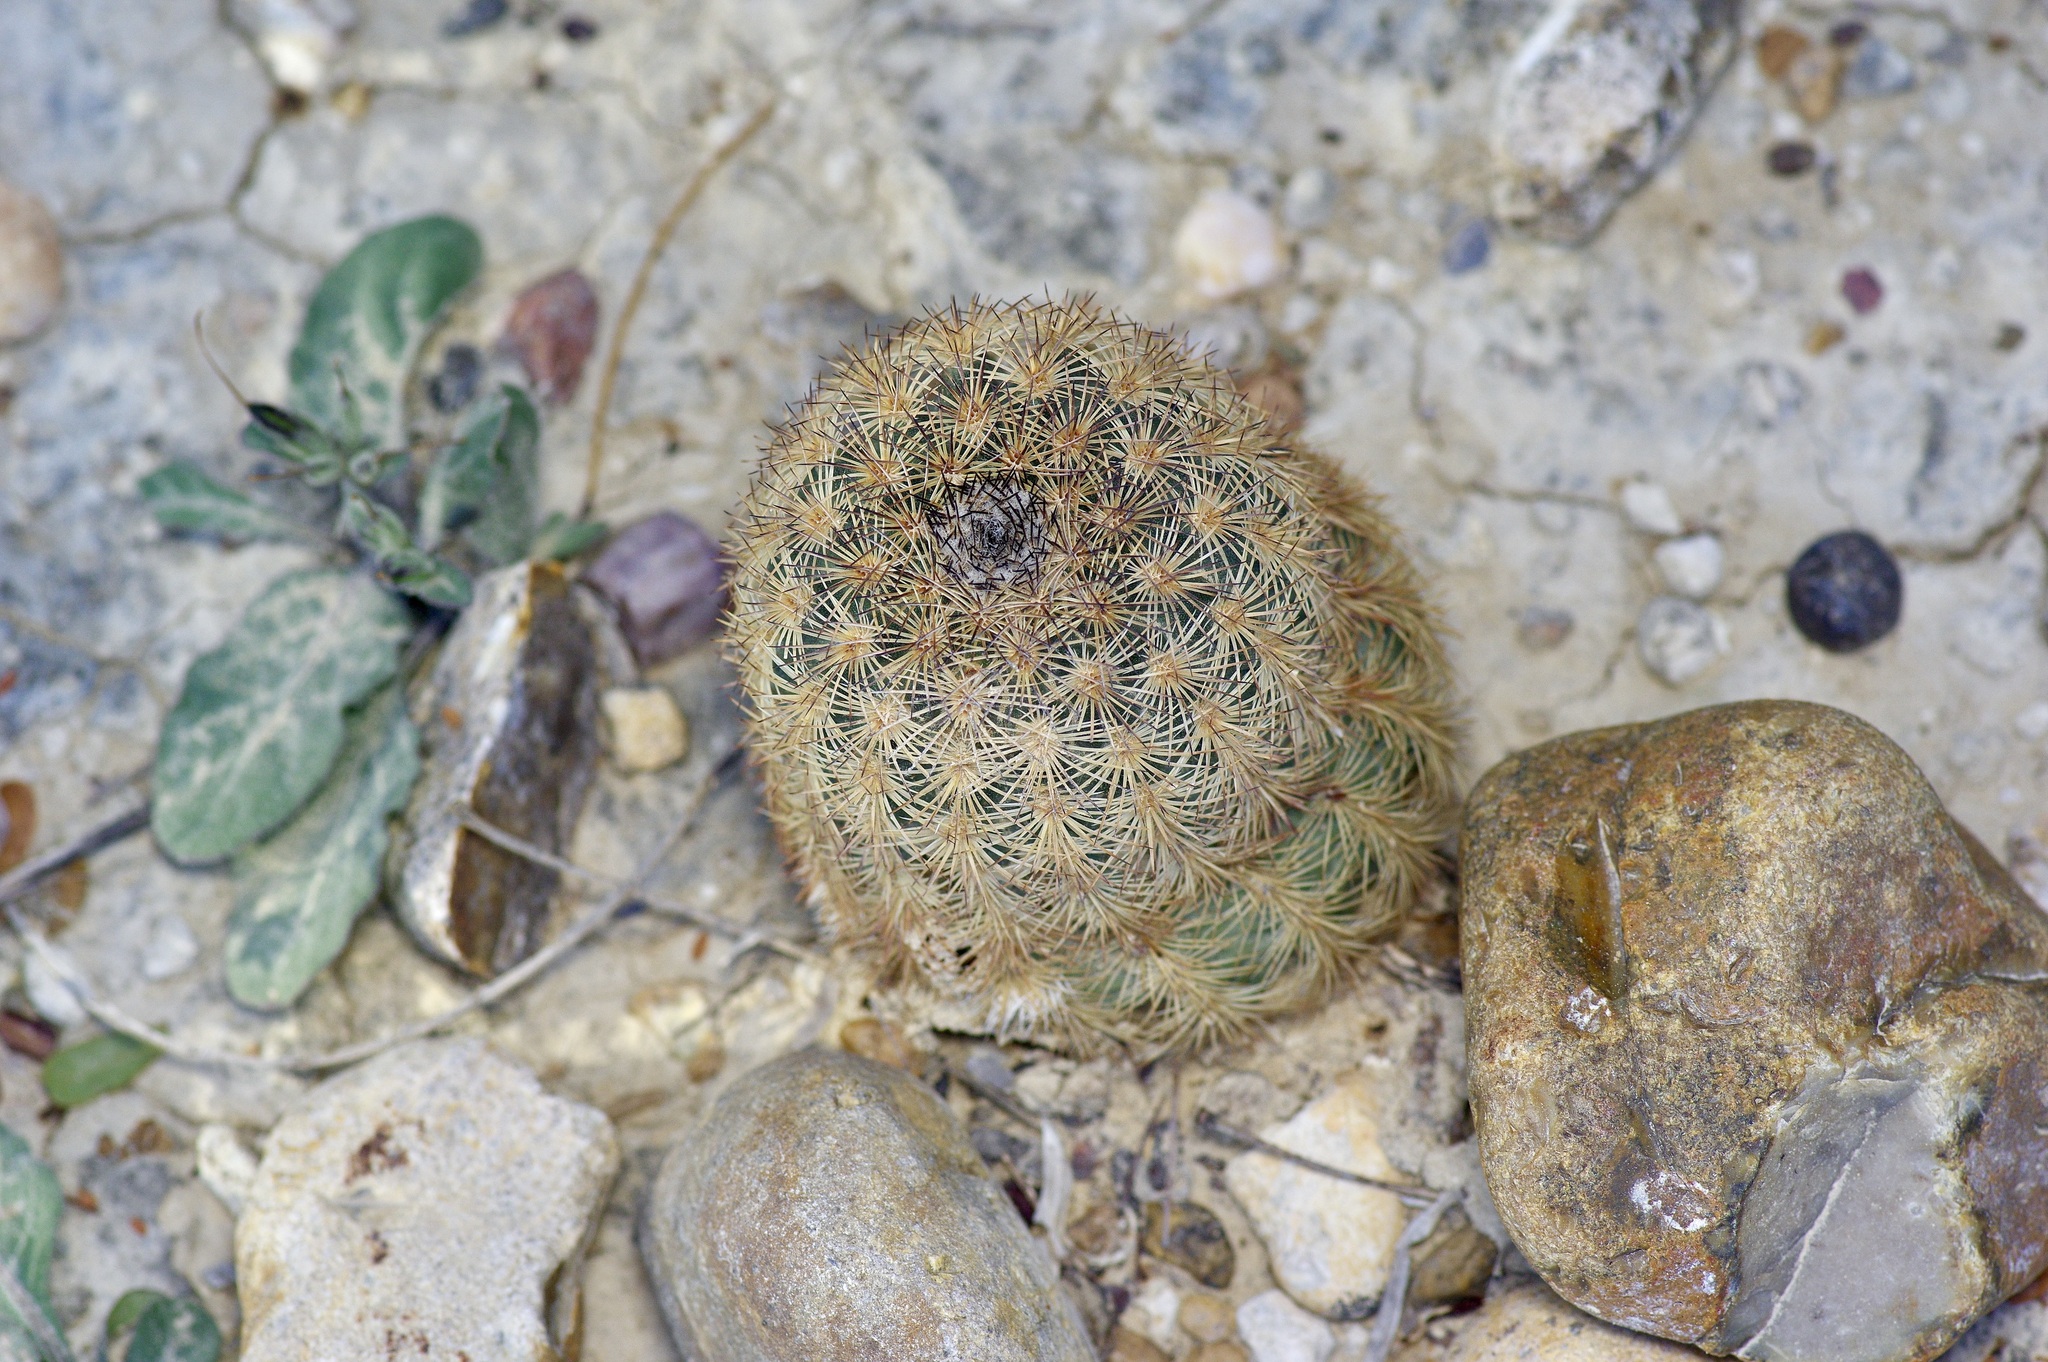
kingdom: Plantae
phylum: Tracheophyta
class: Magnoliopsida
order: Caryophyllales
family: Cactaceae
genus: Echinocereus
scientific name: Echinocereus reichenbachii
